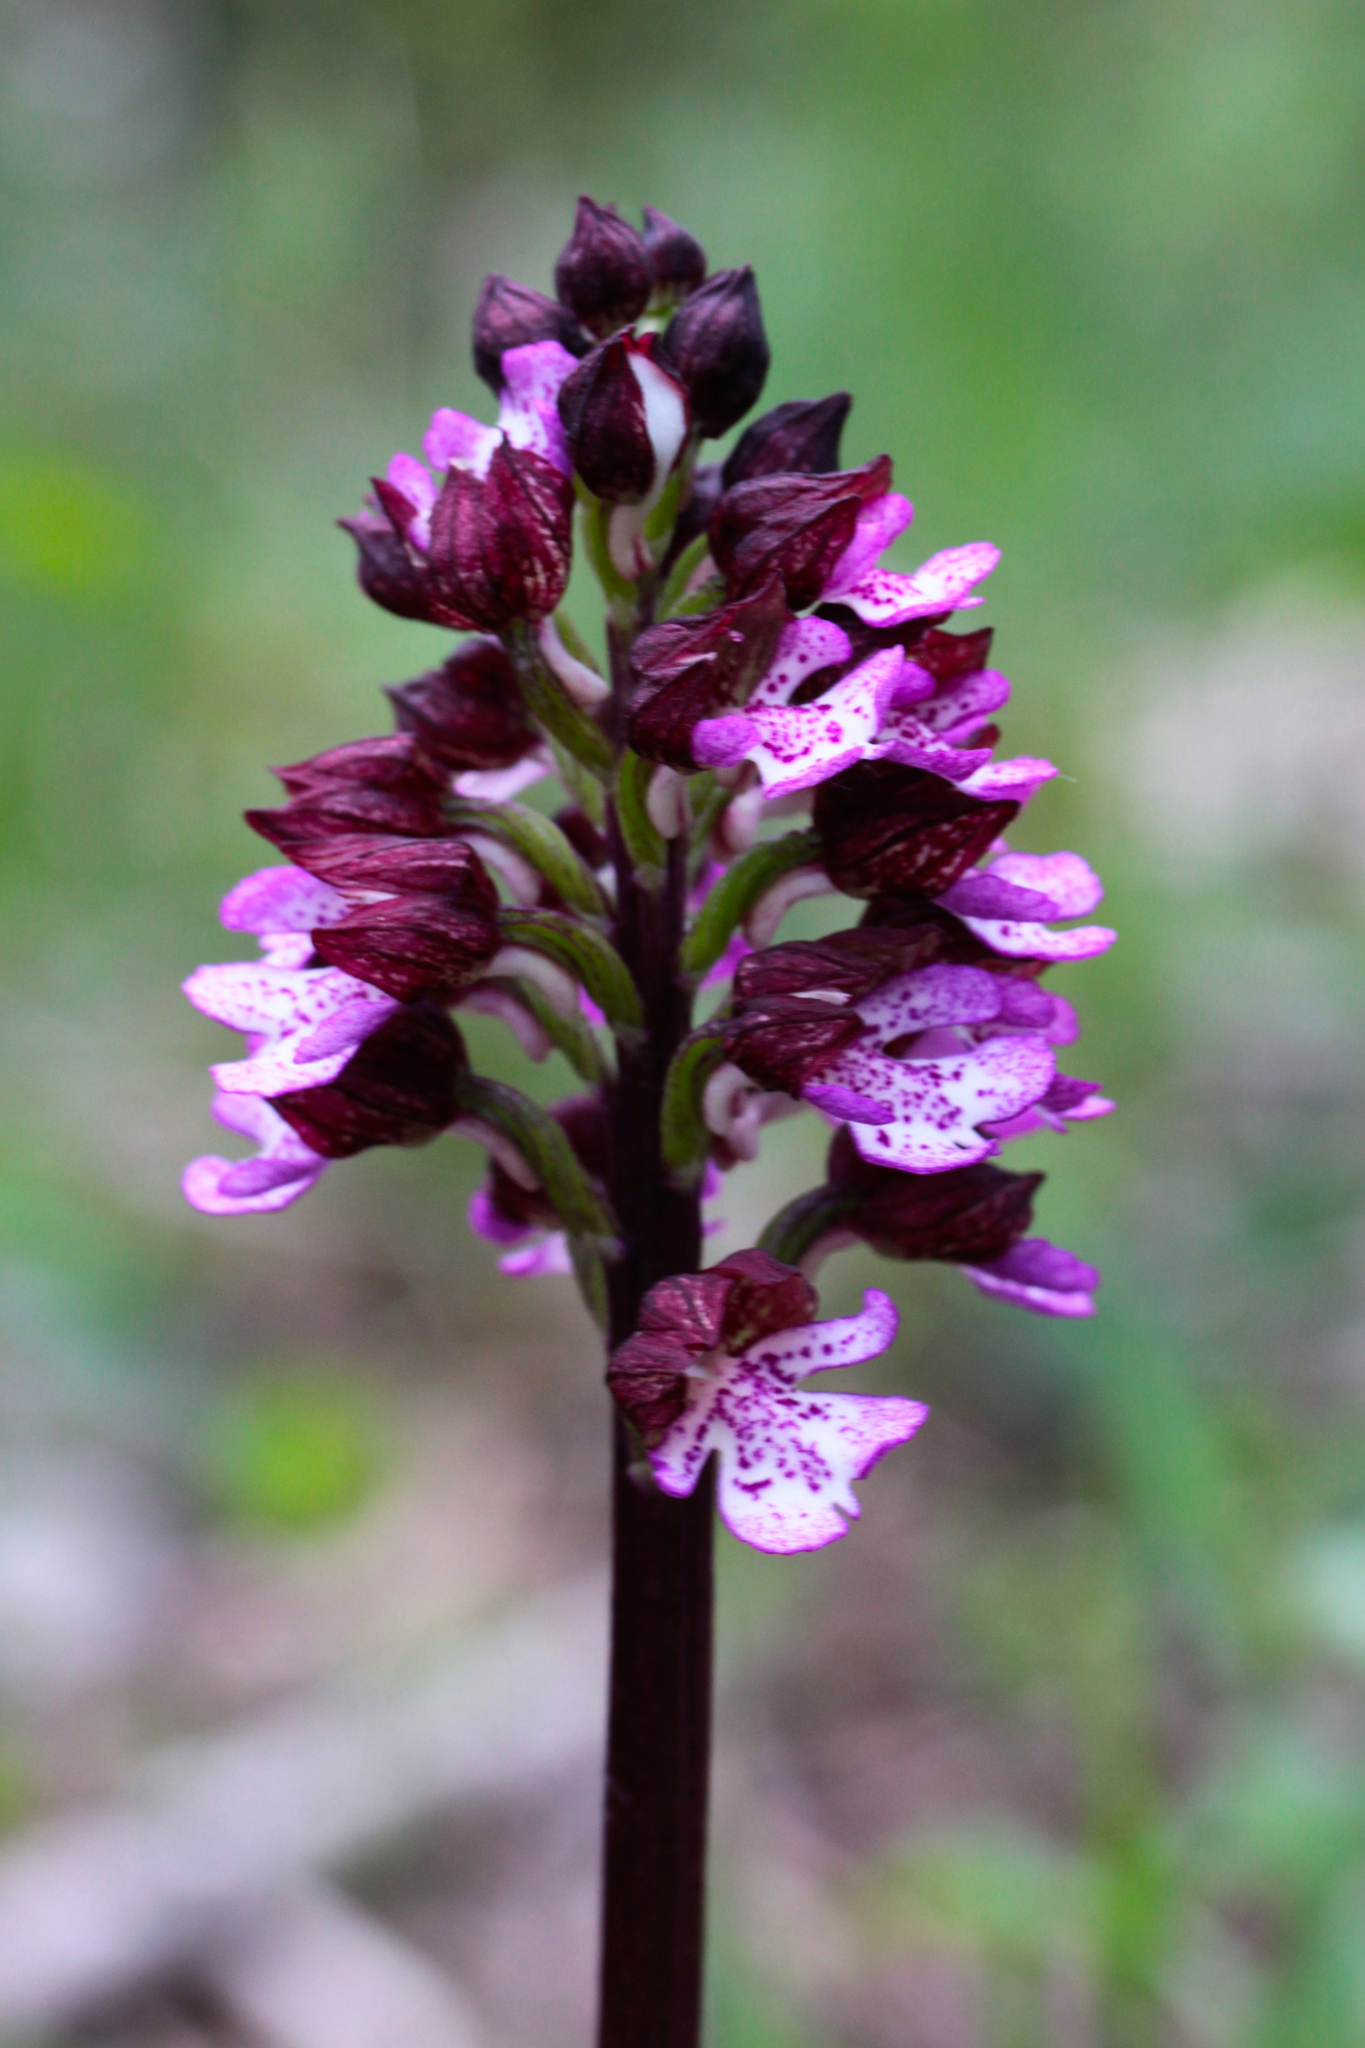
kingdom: Plantae
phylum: Tracheophyta
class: Liliopsida
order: Asparagales
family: Orchidaceae
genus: Orchis
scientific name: Orchis purpurea
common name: Lady orchid
